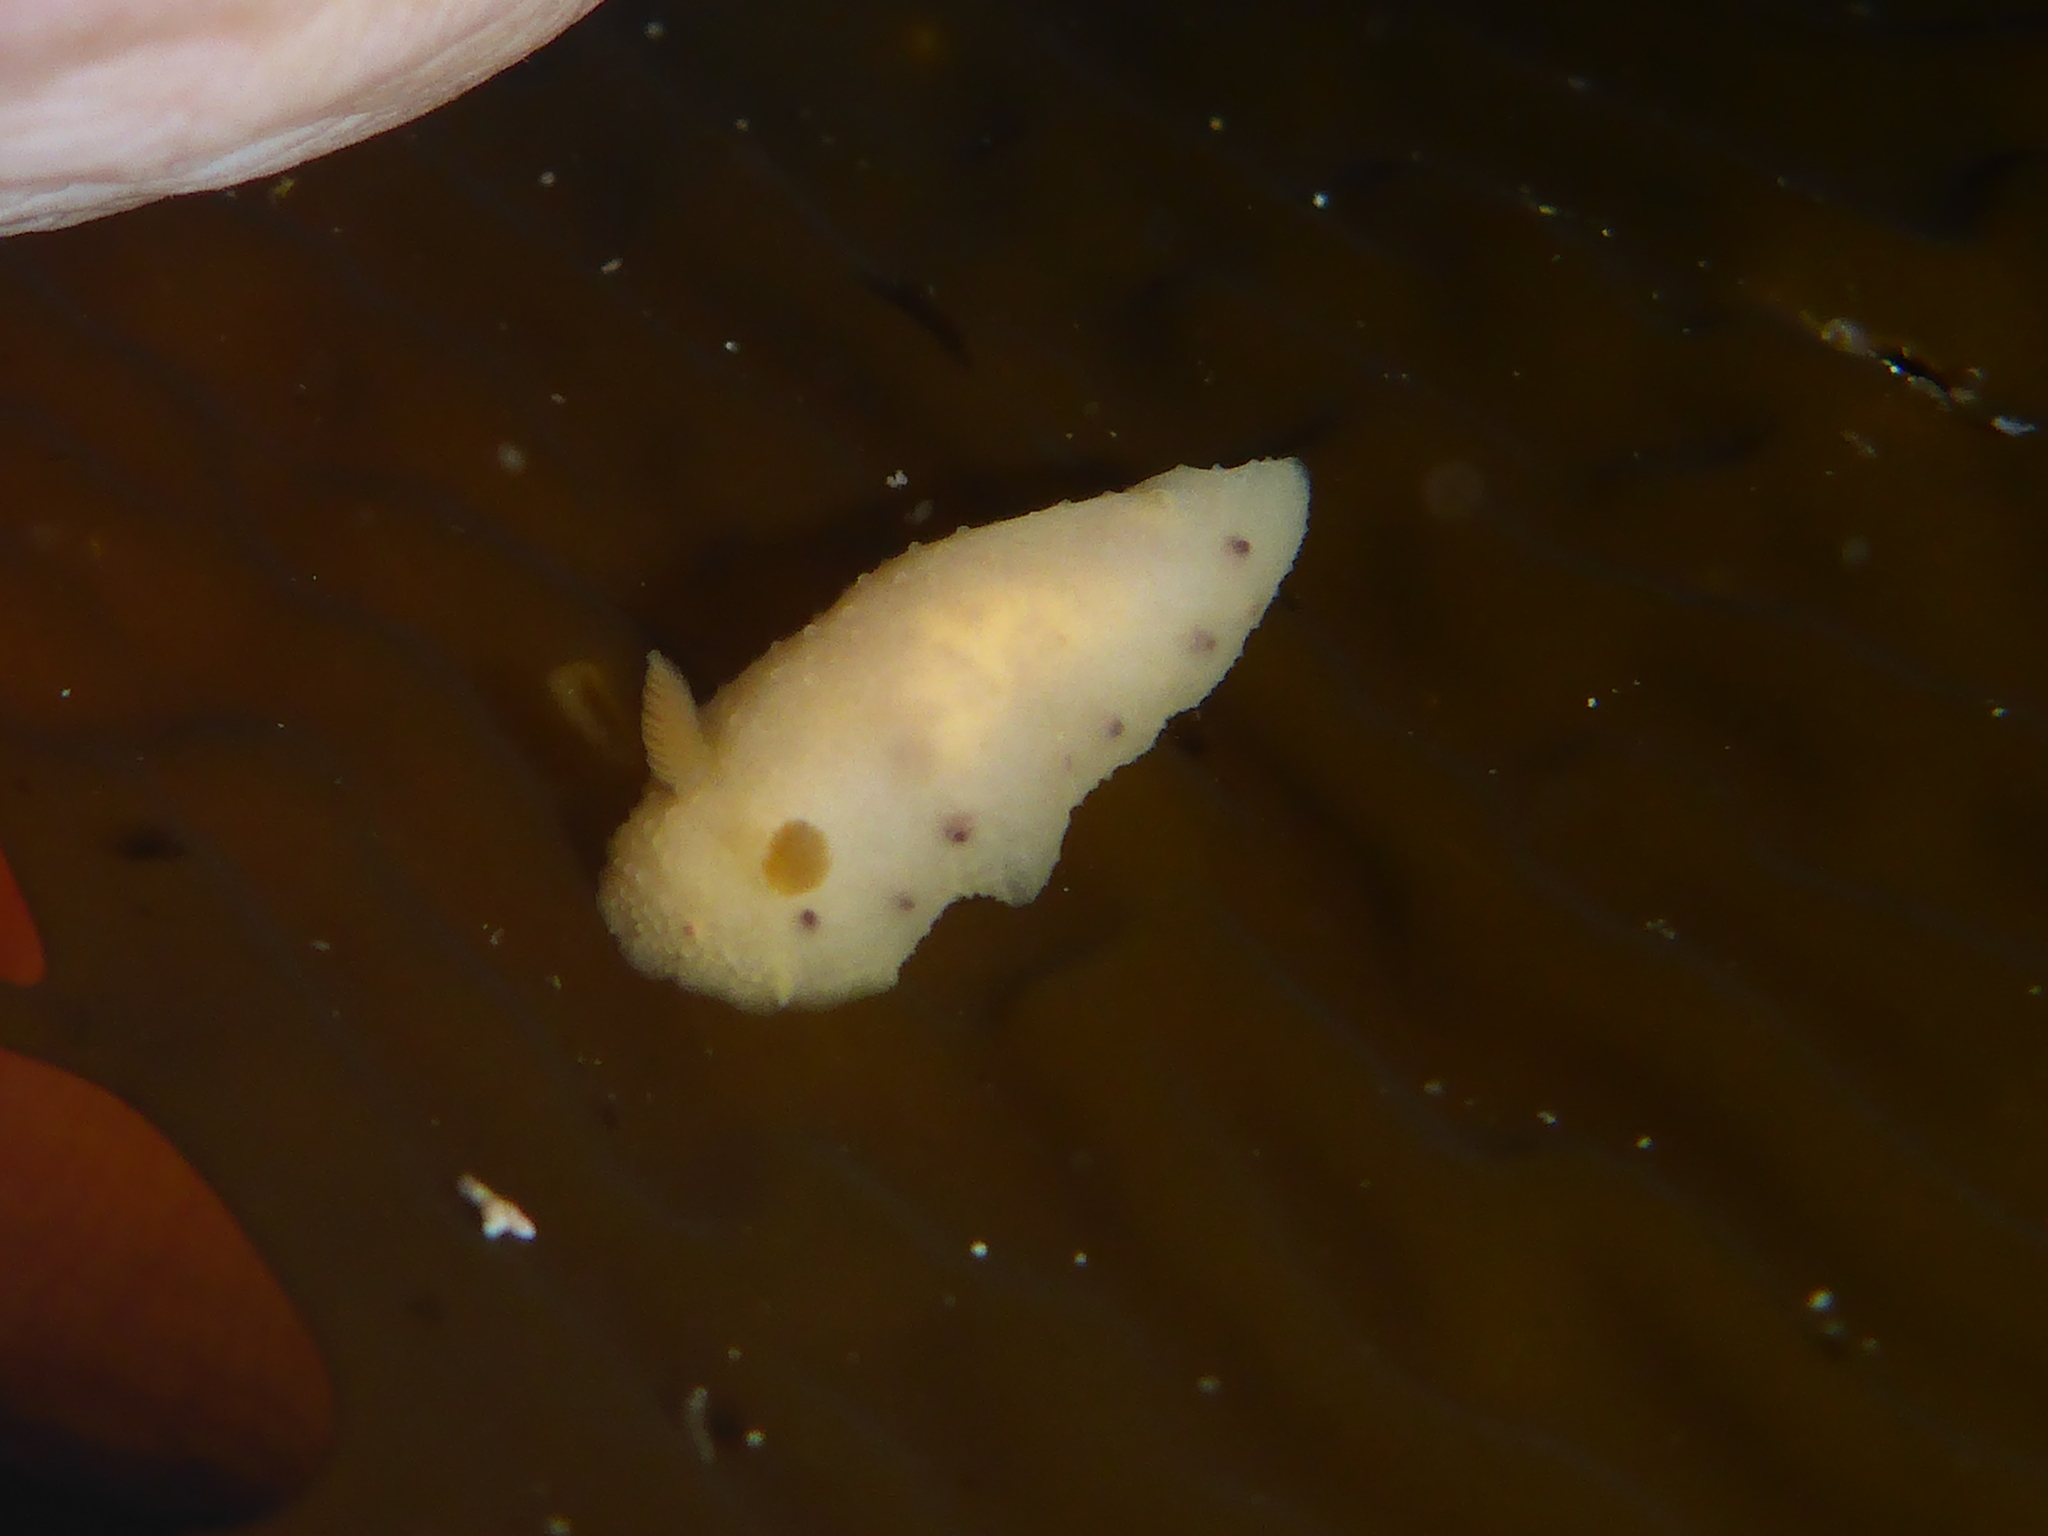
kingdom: Animalia
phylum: Mollusca
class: Gastropoda
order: Nudibranchia
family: Cadlinidae
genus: Cadlina
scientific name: Cadlina sparsa
